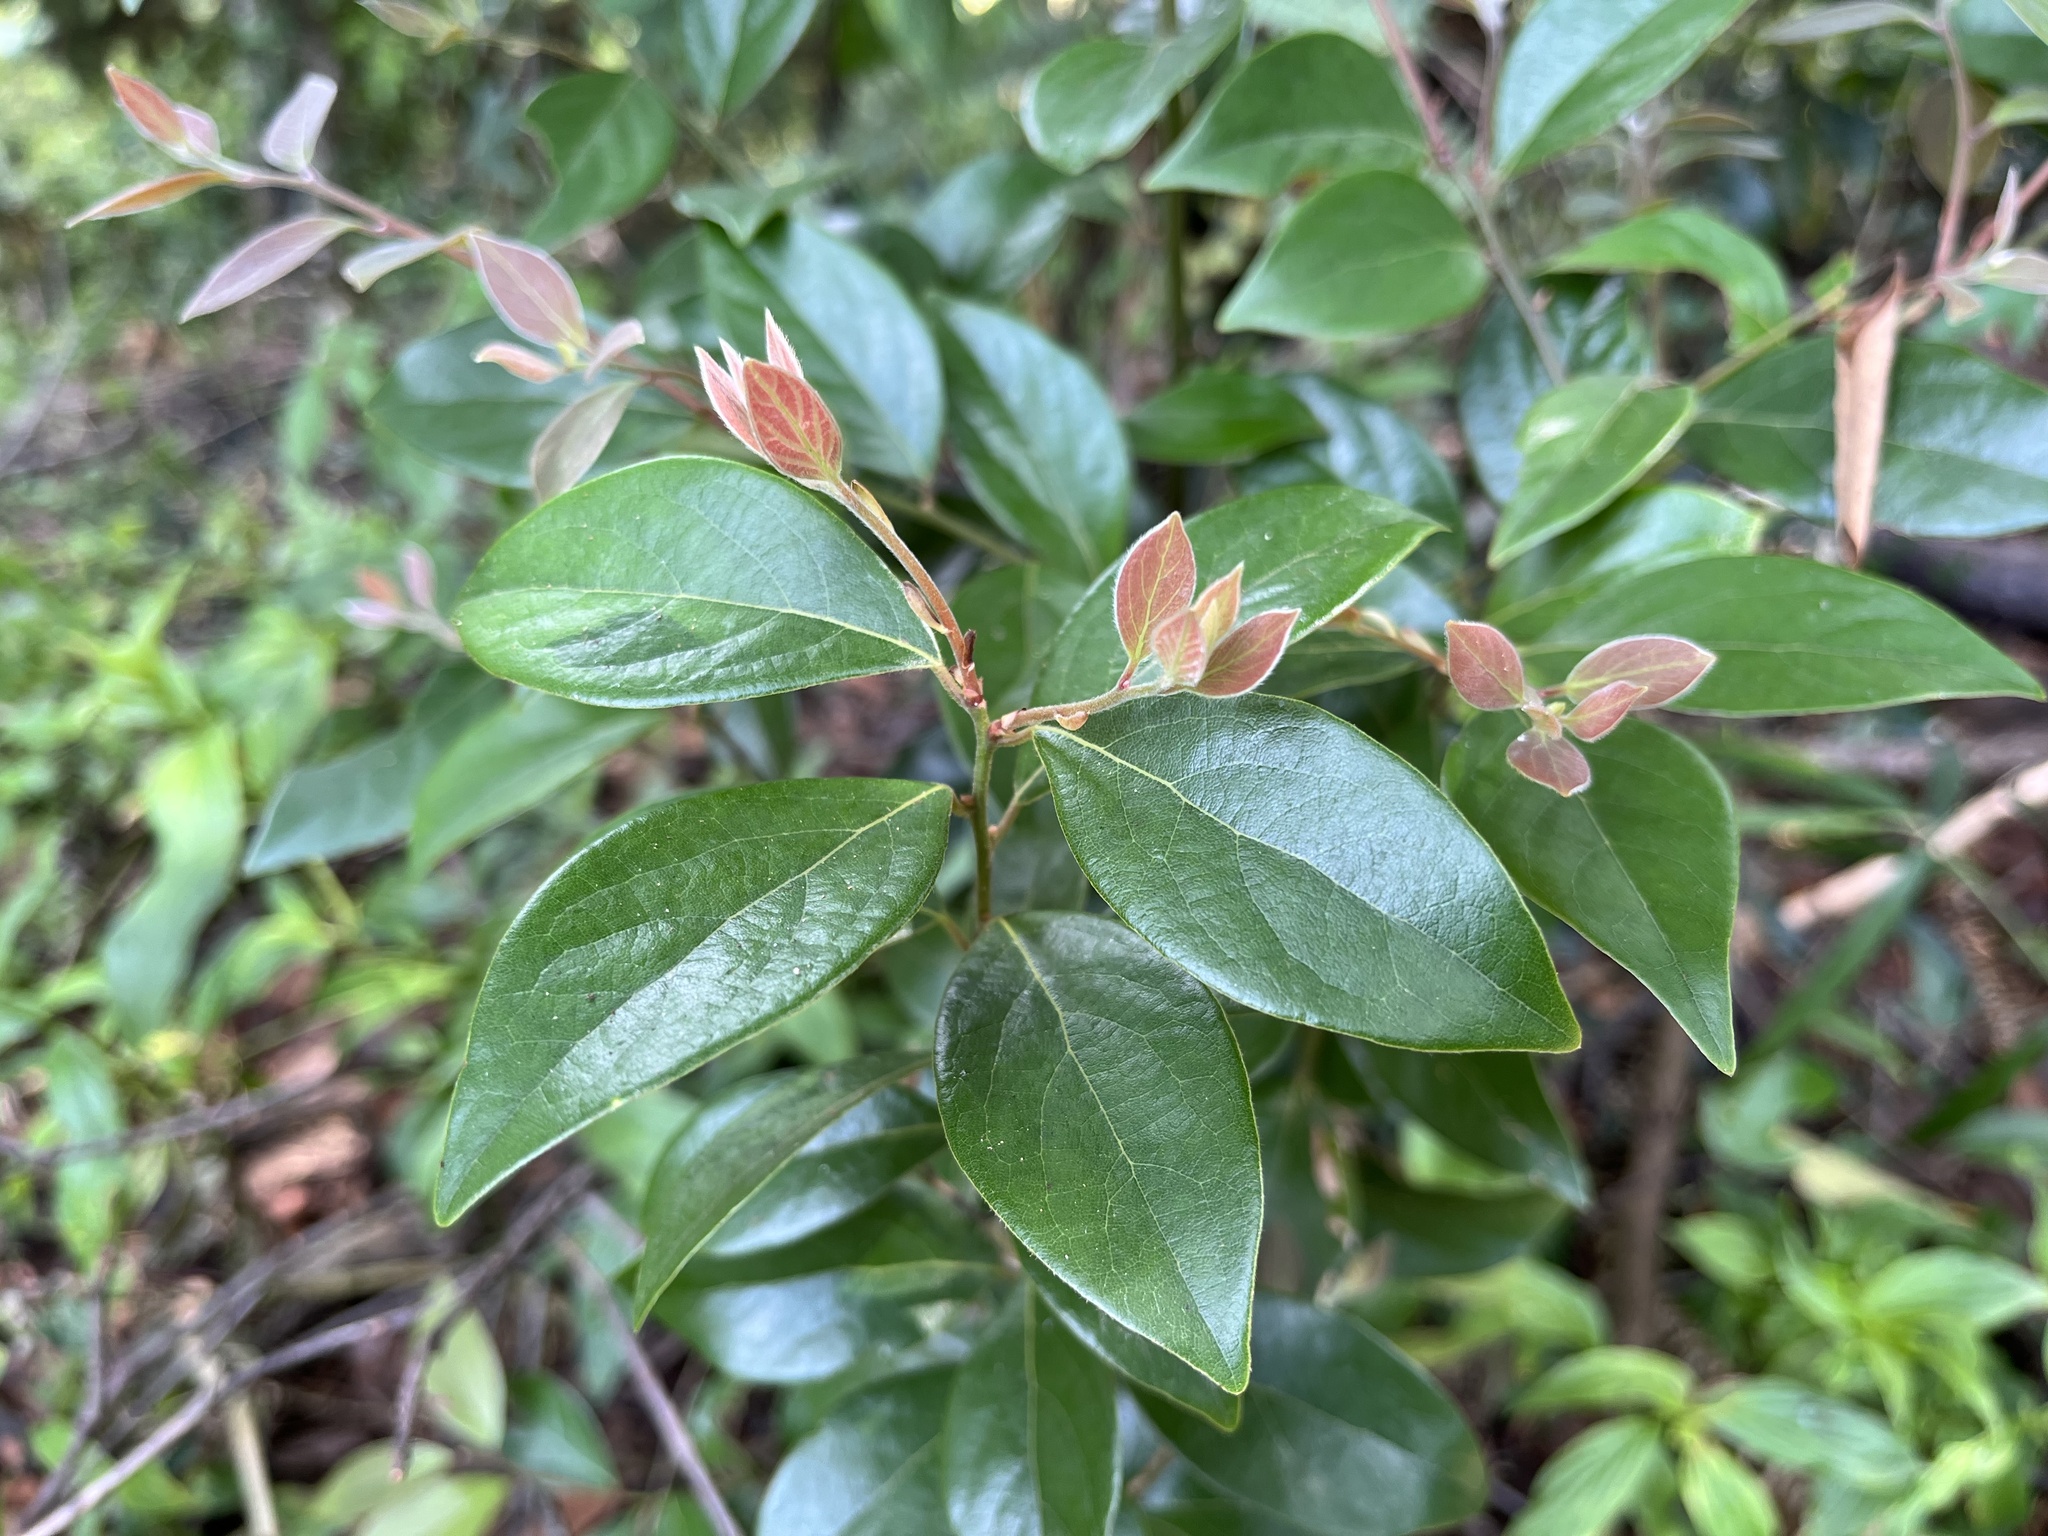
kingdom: Plantae
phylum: Tracheophyta
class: Magnoliopsida
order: Laurales
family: Lauraceae
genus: Lindera
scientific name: Lindera communis
